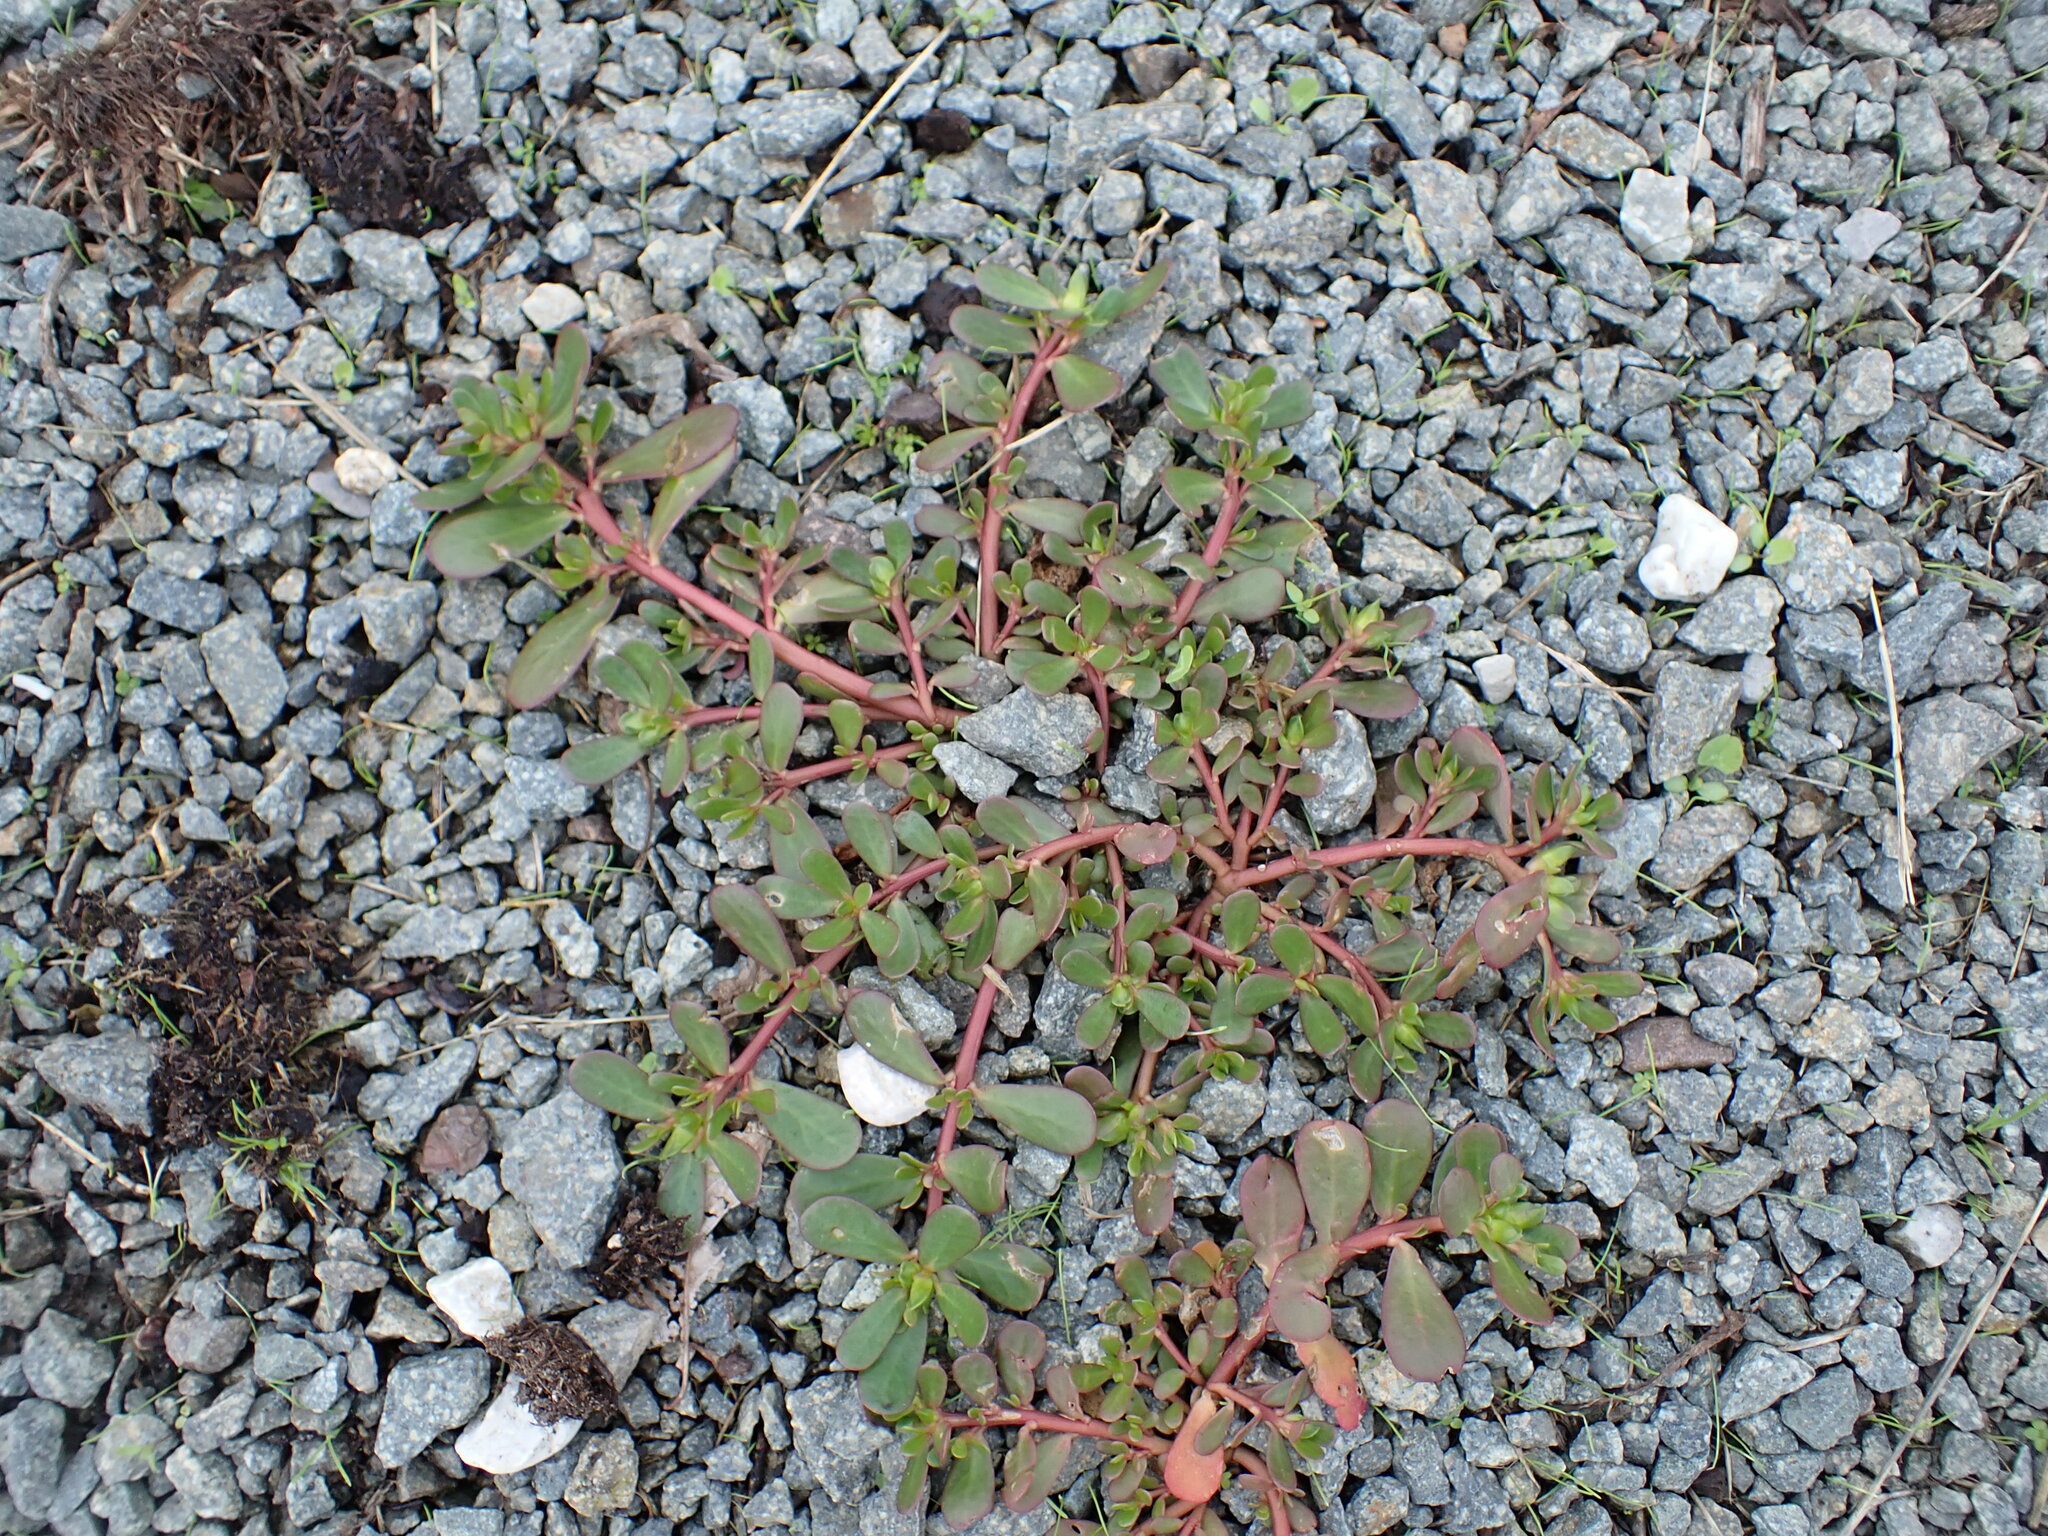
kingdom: Plantae
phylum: Tracheophyta
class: Magnoliopsida
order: Caryophyllales
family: Portulacaceae
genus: Portulaca
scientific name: Portulaca oleracea
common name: Common purslane
